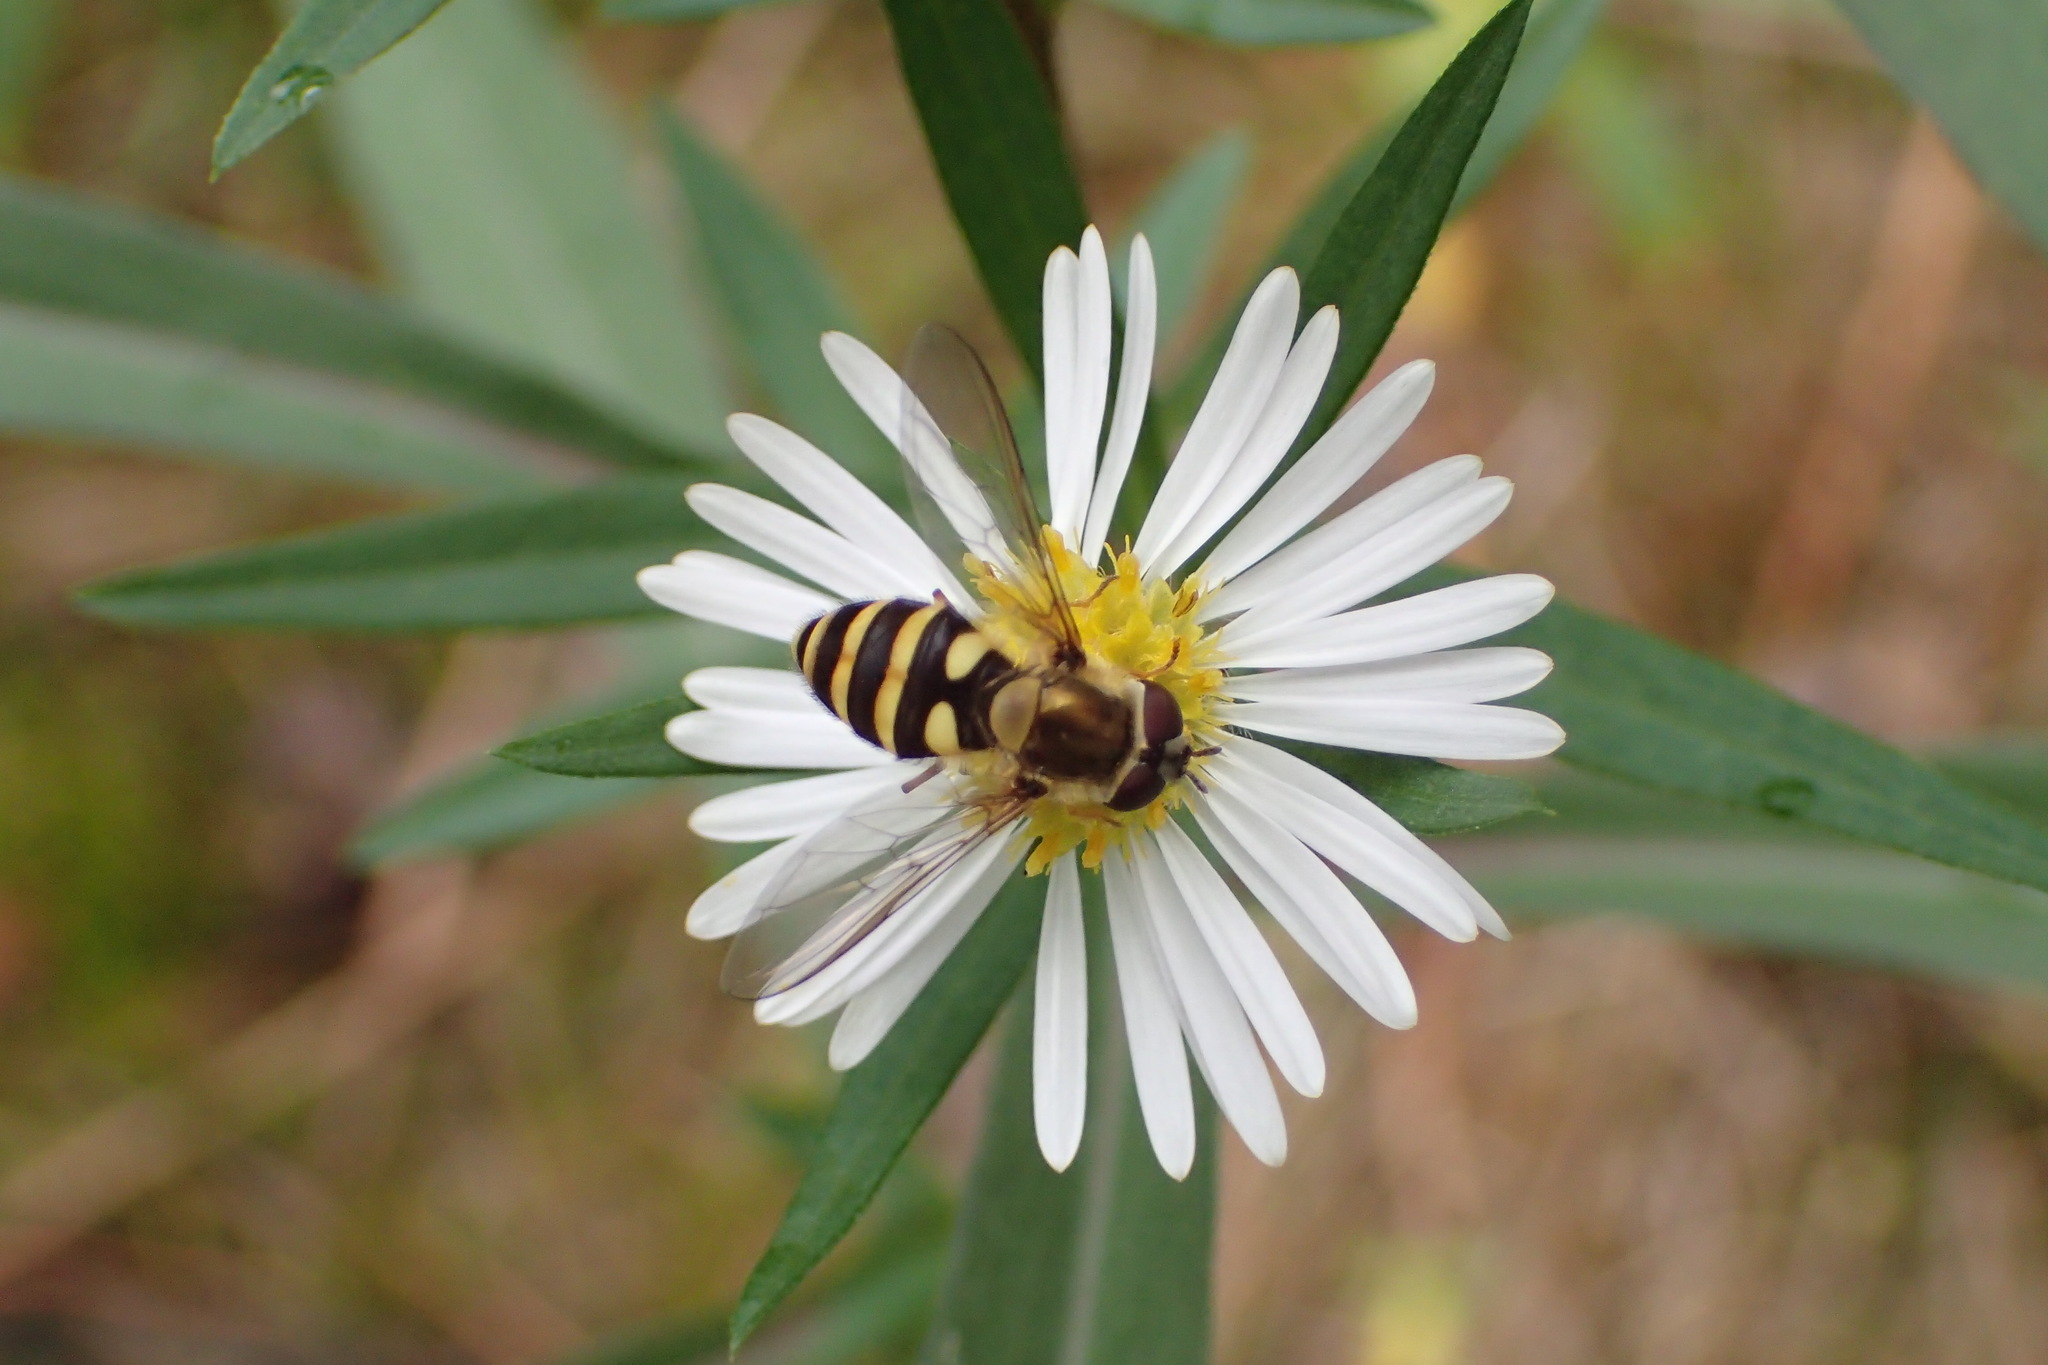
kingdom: Animalia
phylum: Arthropoda
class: Insecta
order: Diptera
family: Syrphidae
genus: Syrphus
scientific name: Syrphus
